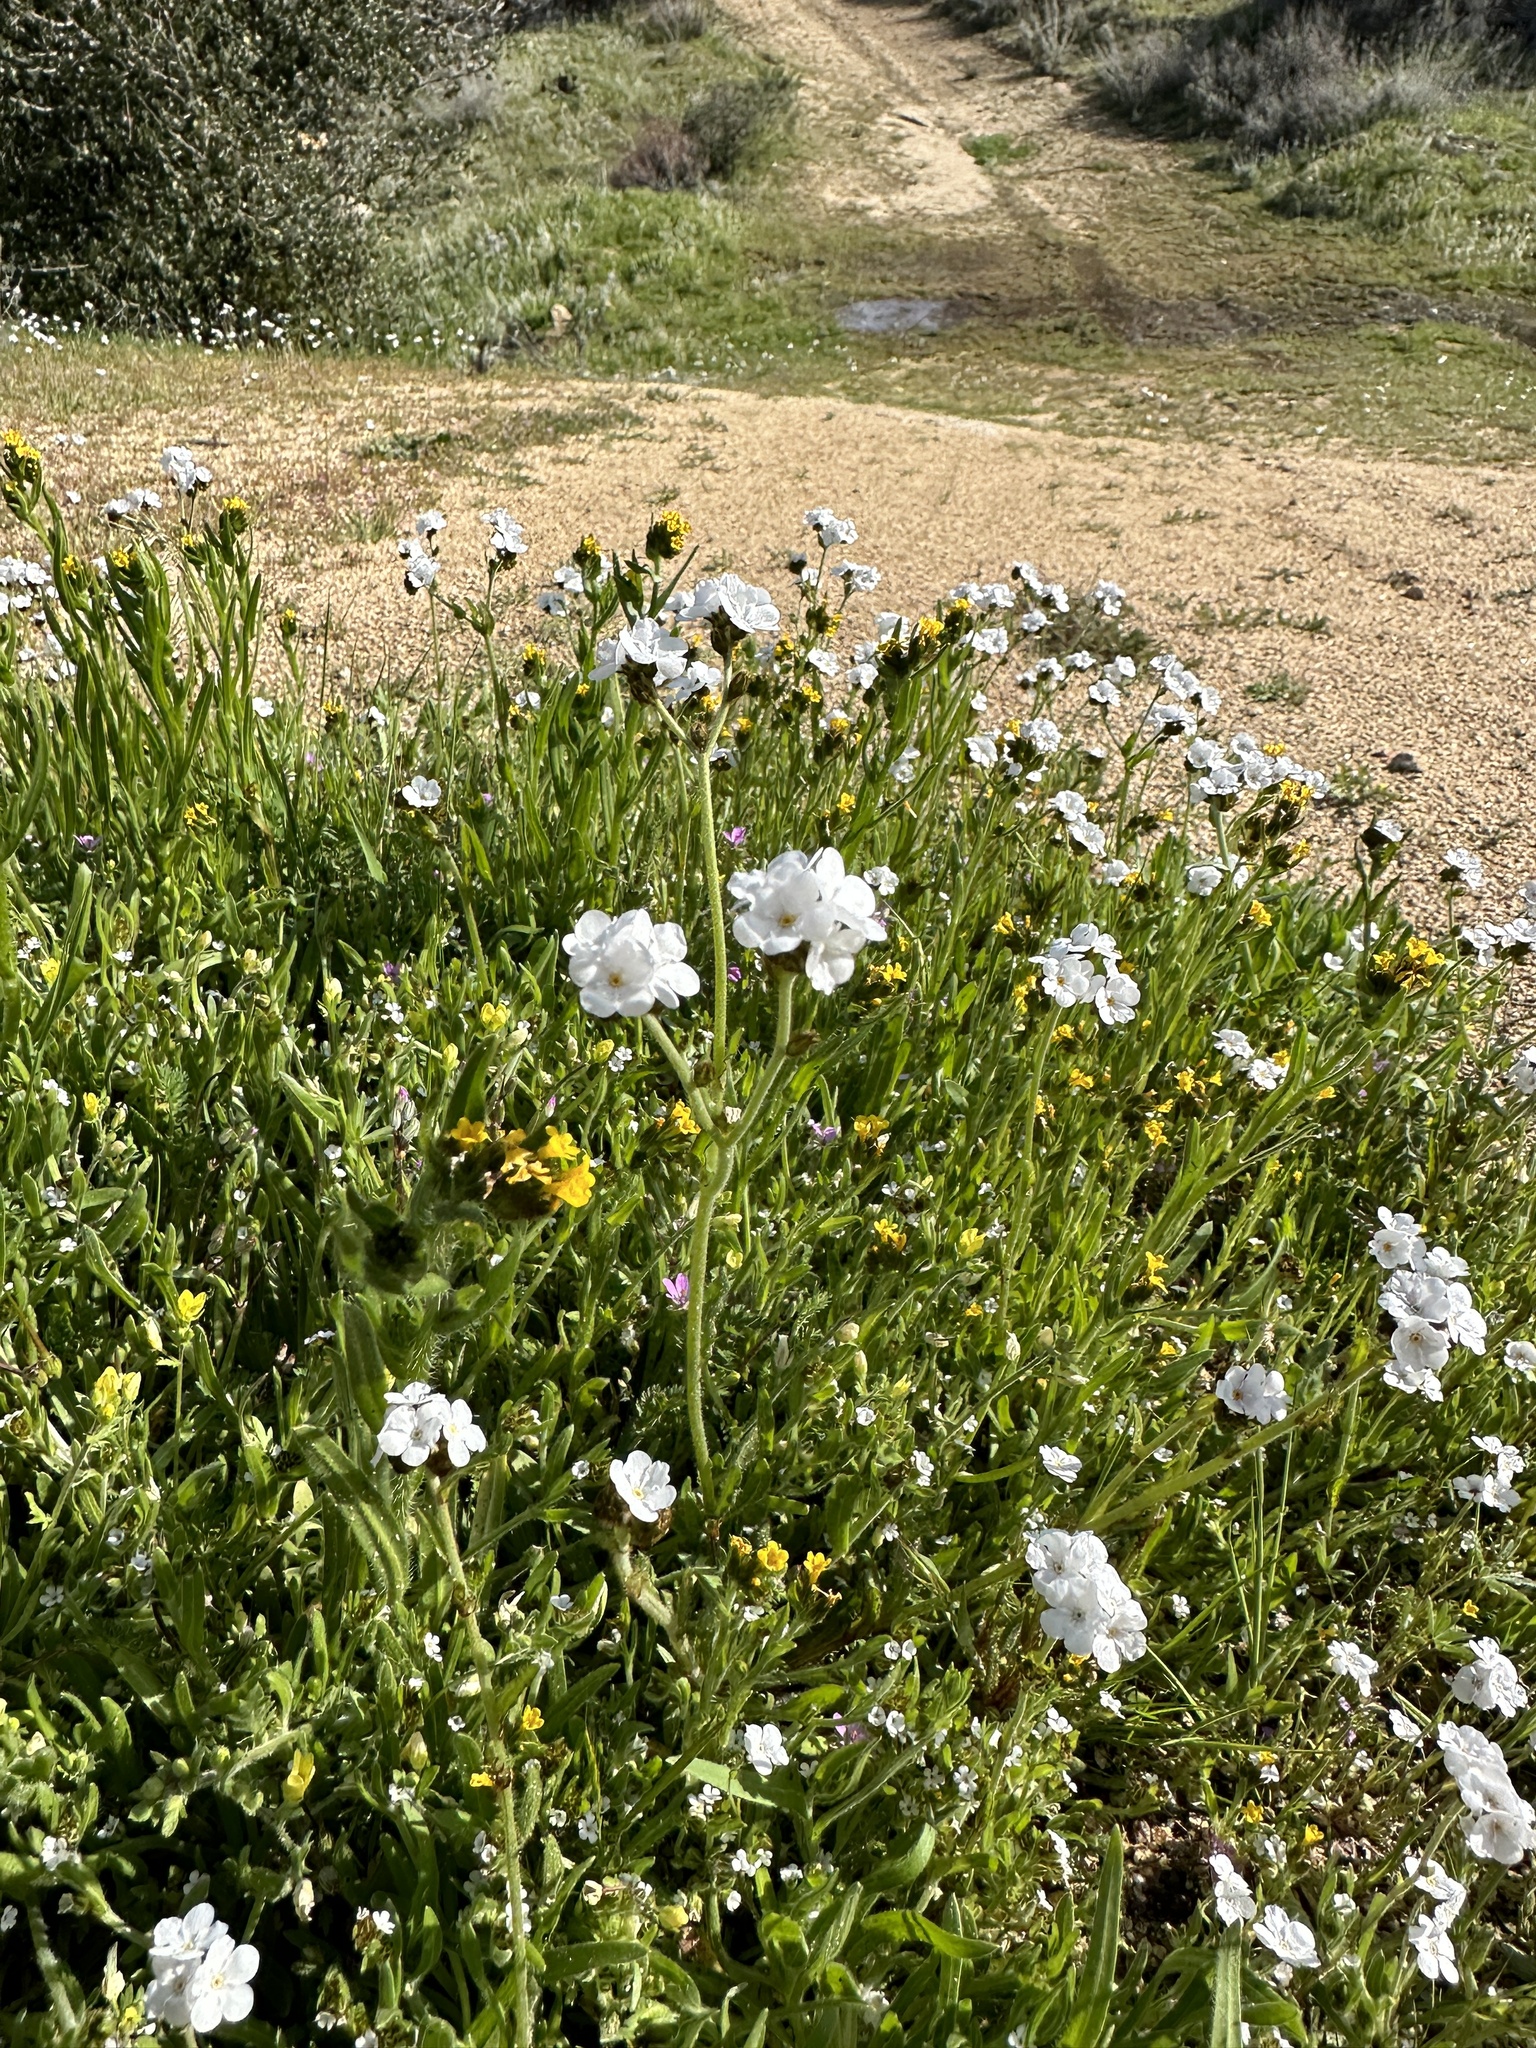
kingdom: Plantae
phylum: Tracheophyta
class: Magnoliopsida
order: Boraginales
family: Boraginaceae
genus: Plagiobothrys
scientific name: Plagiobothrys nothofulvus
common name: Popcorn-flower
